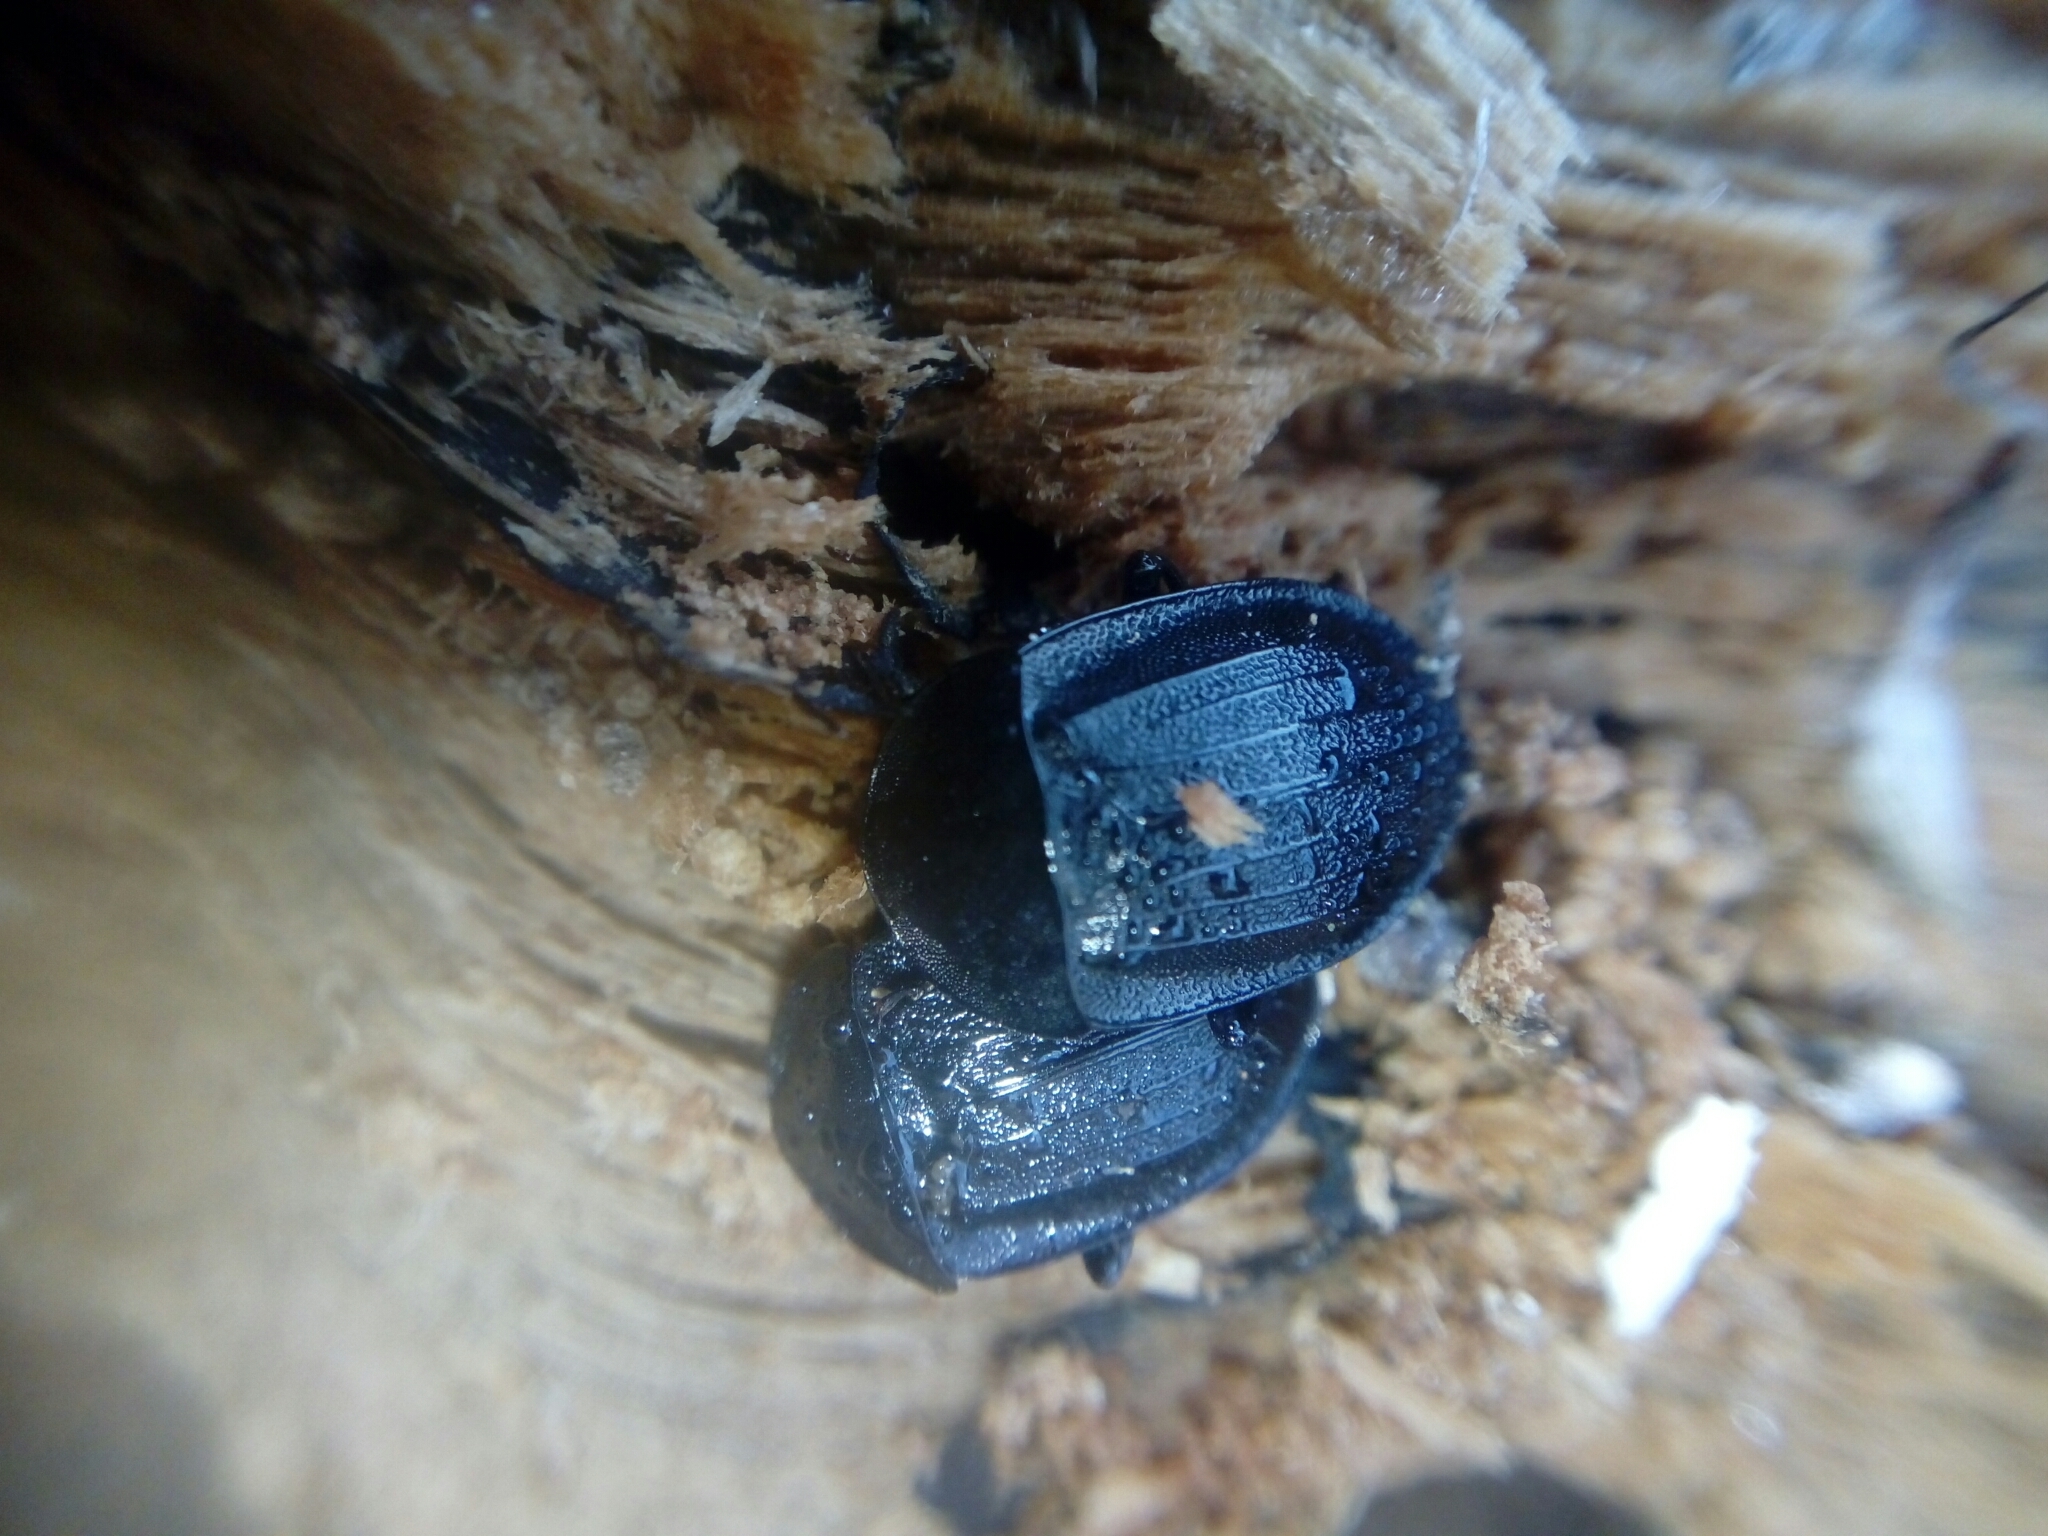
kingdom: Animalia
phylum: Arthropoda
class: Insecta
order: Coleoptera
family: Staphylinidae
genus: Silpha
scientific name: Silpha atrata
